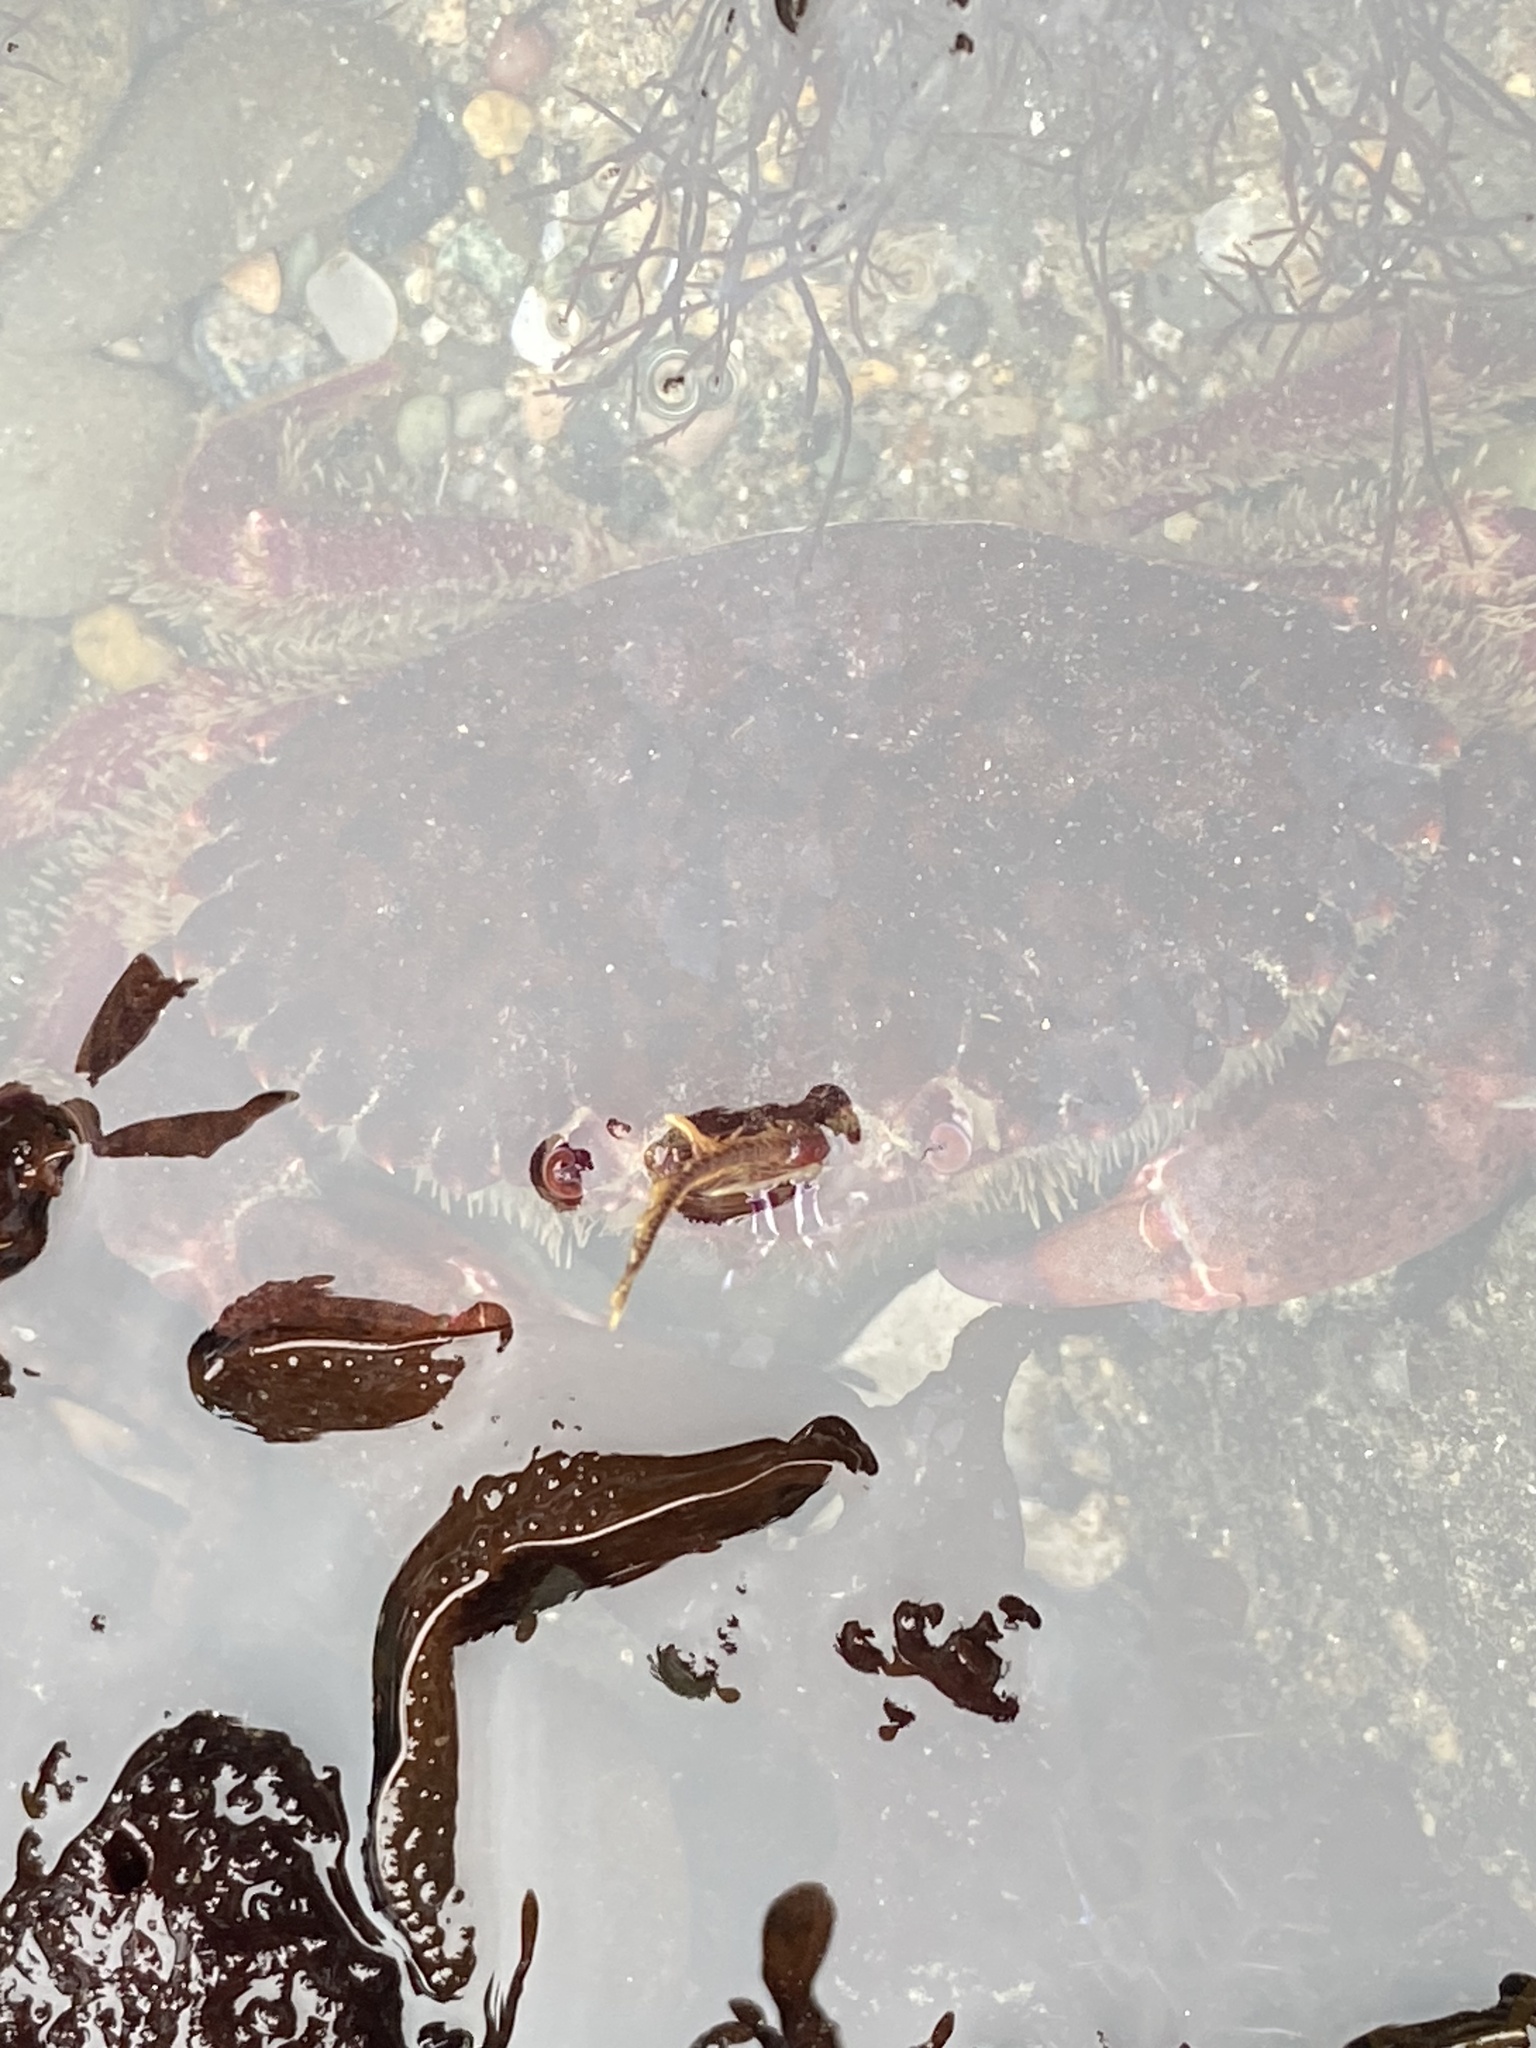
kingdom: Animalia
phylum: Arthropoda
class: Malacostraca
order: Decapoda
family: Cancridae
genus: Romaleon
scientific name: Romaleon antennarium
